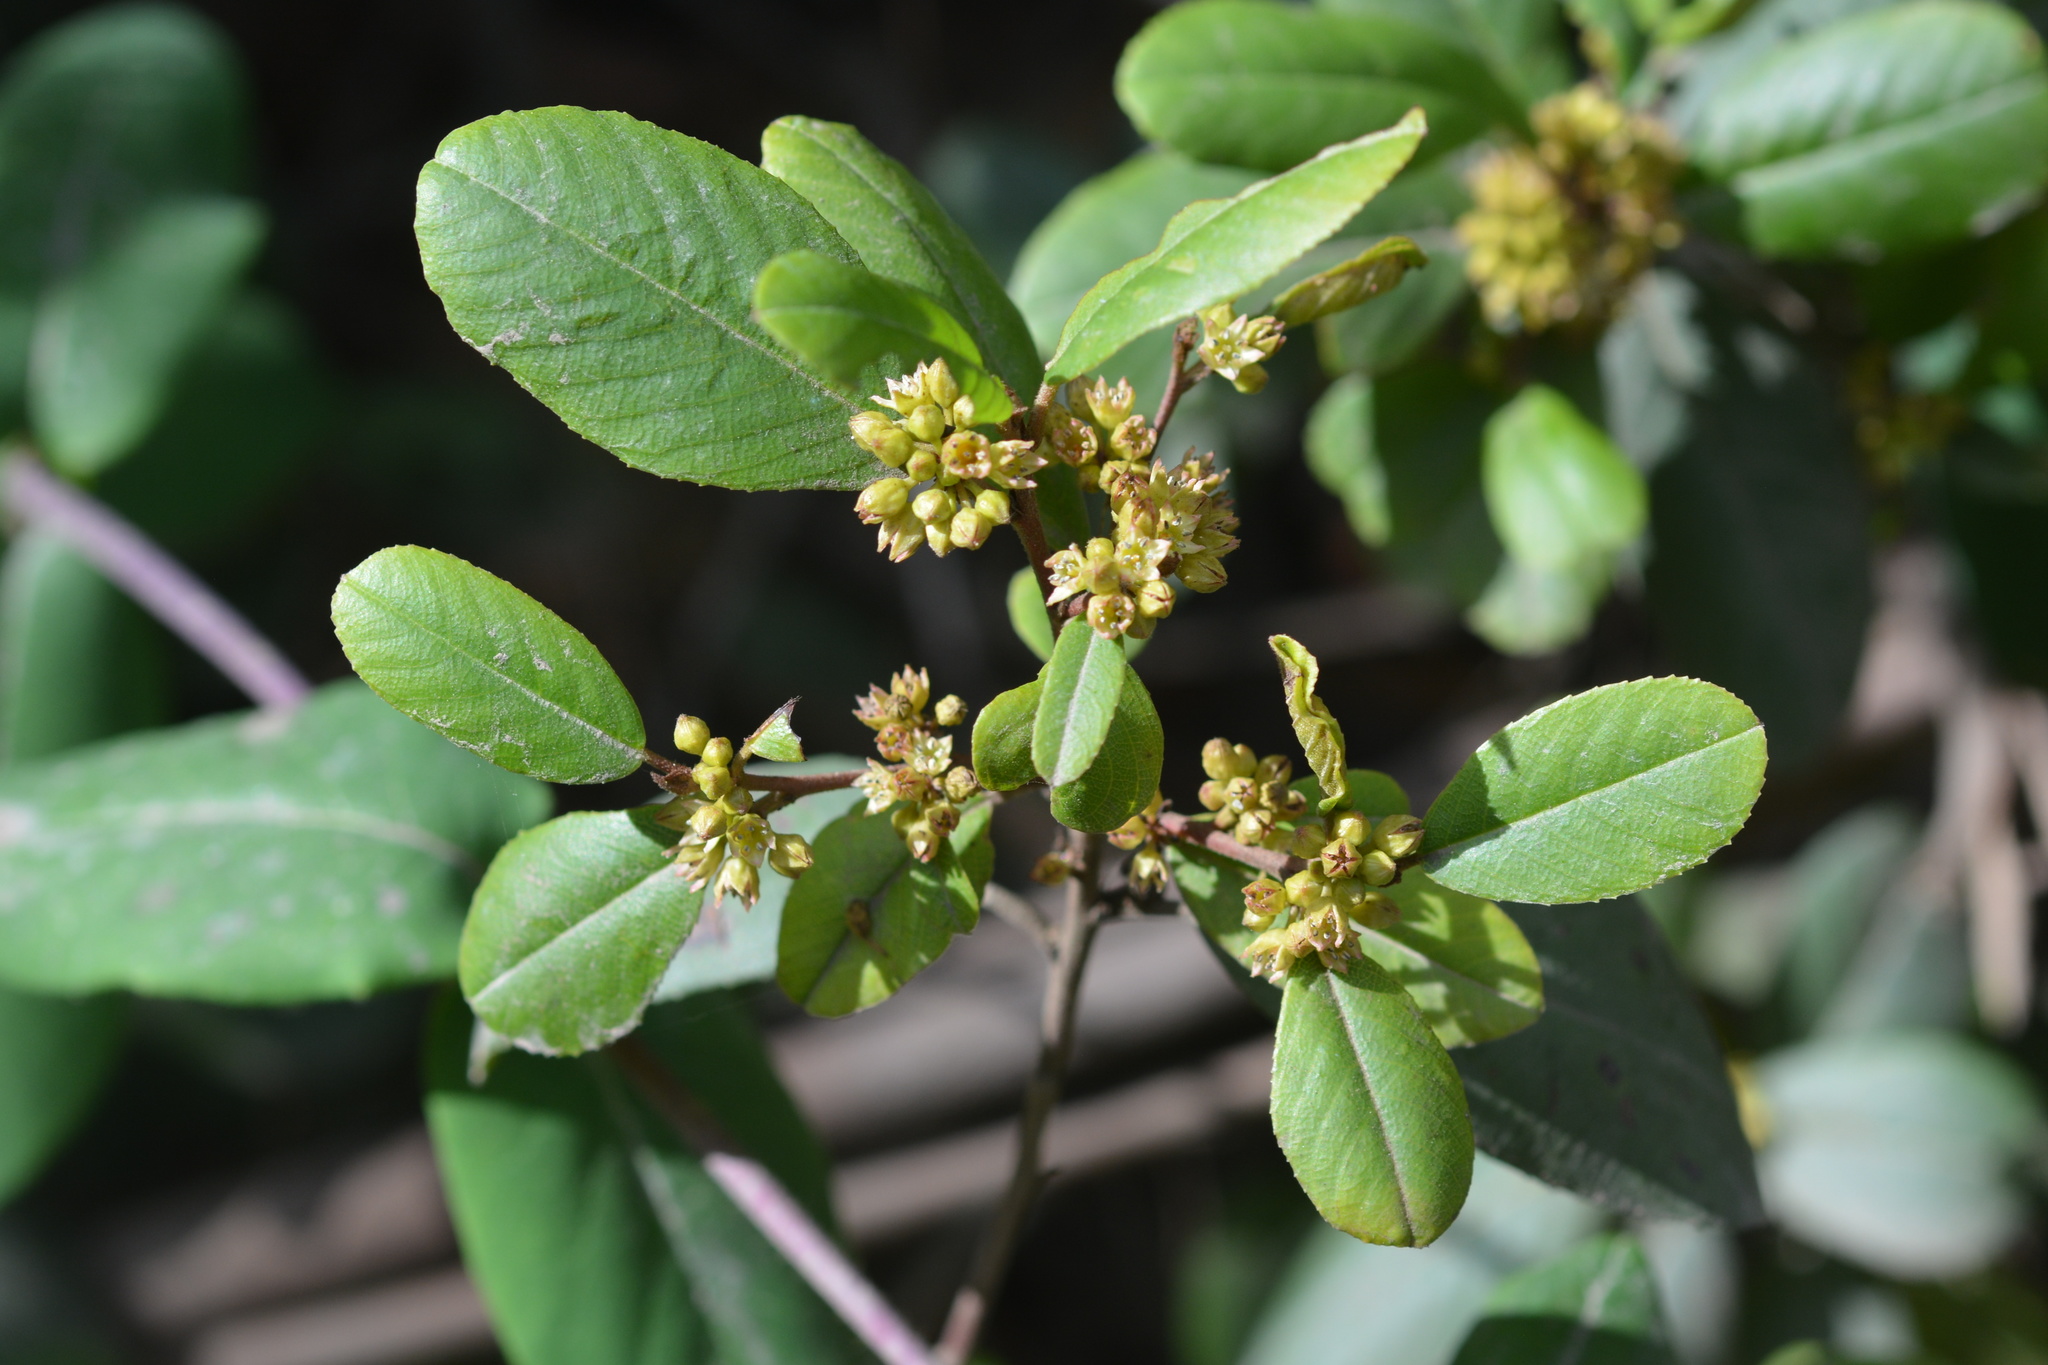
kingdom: Plantae
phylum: Tracheophyta
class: Magnoliopsida
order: Rosales
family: Rhamnaceae
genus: Frangula
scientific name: Frangula californica
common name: California buckthorn
